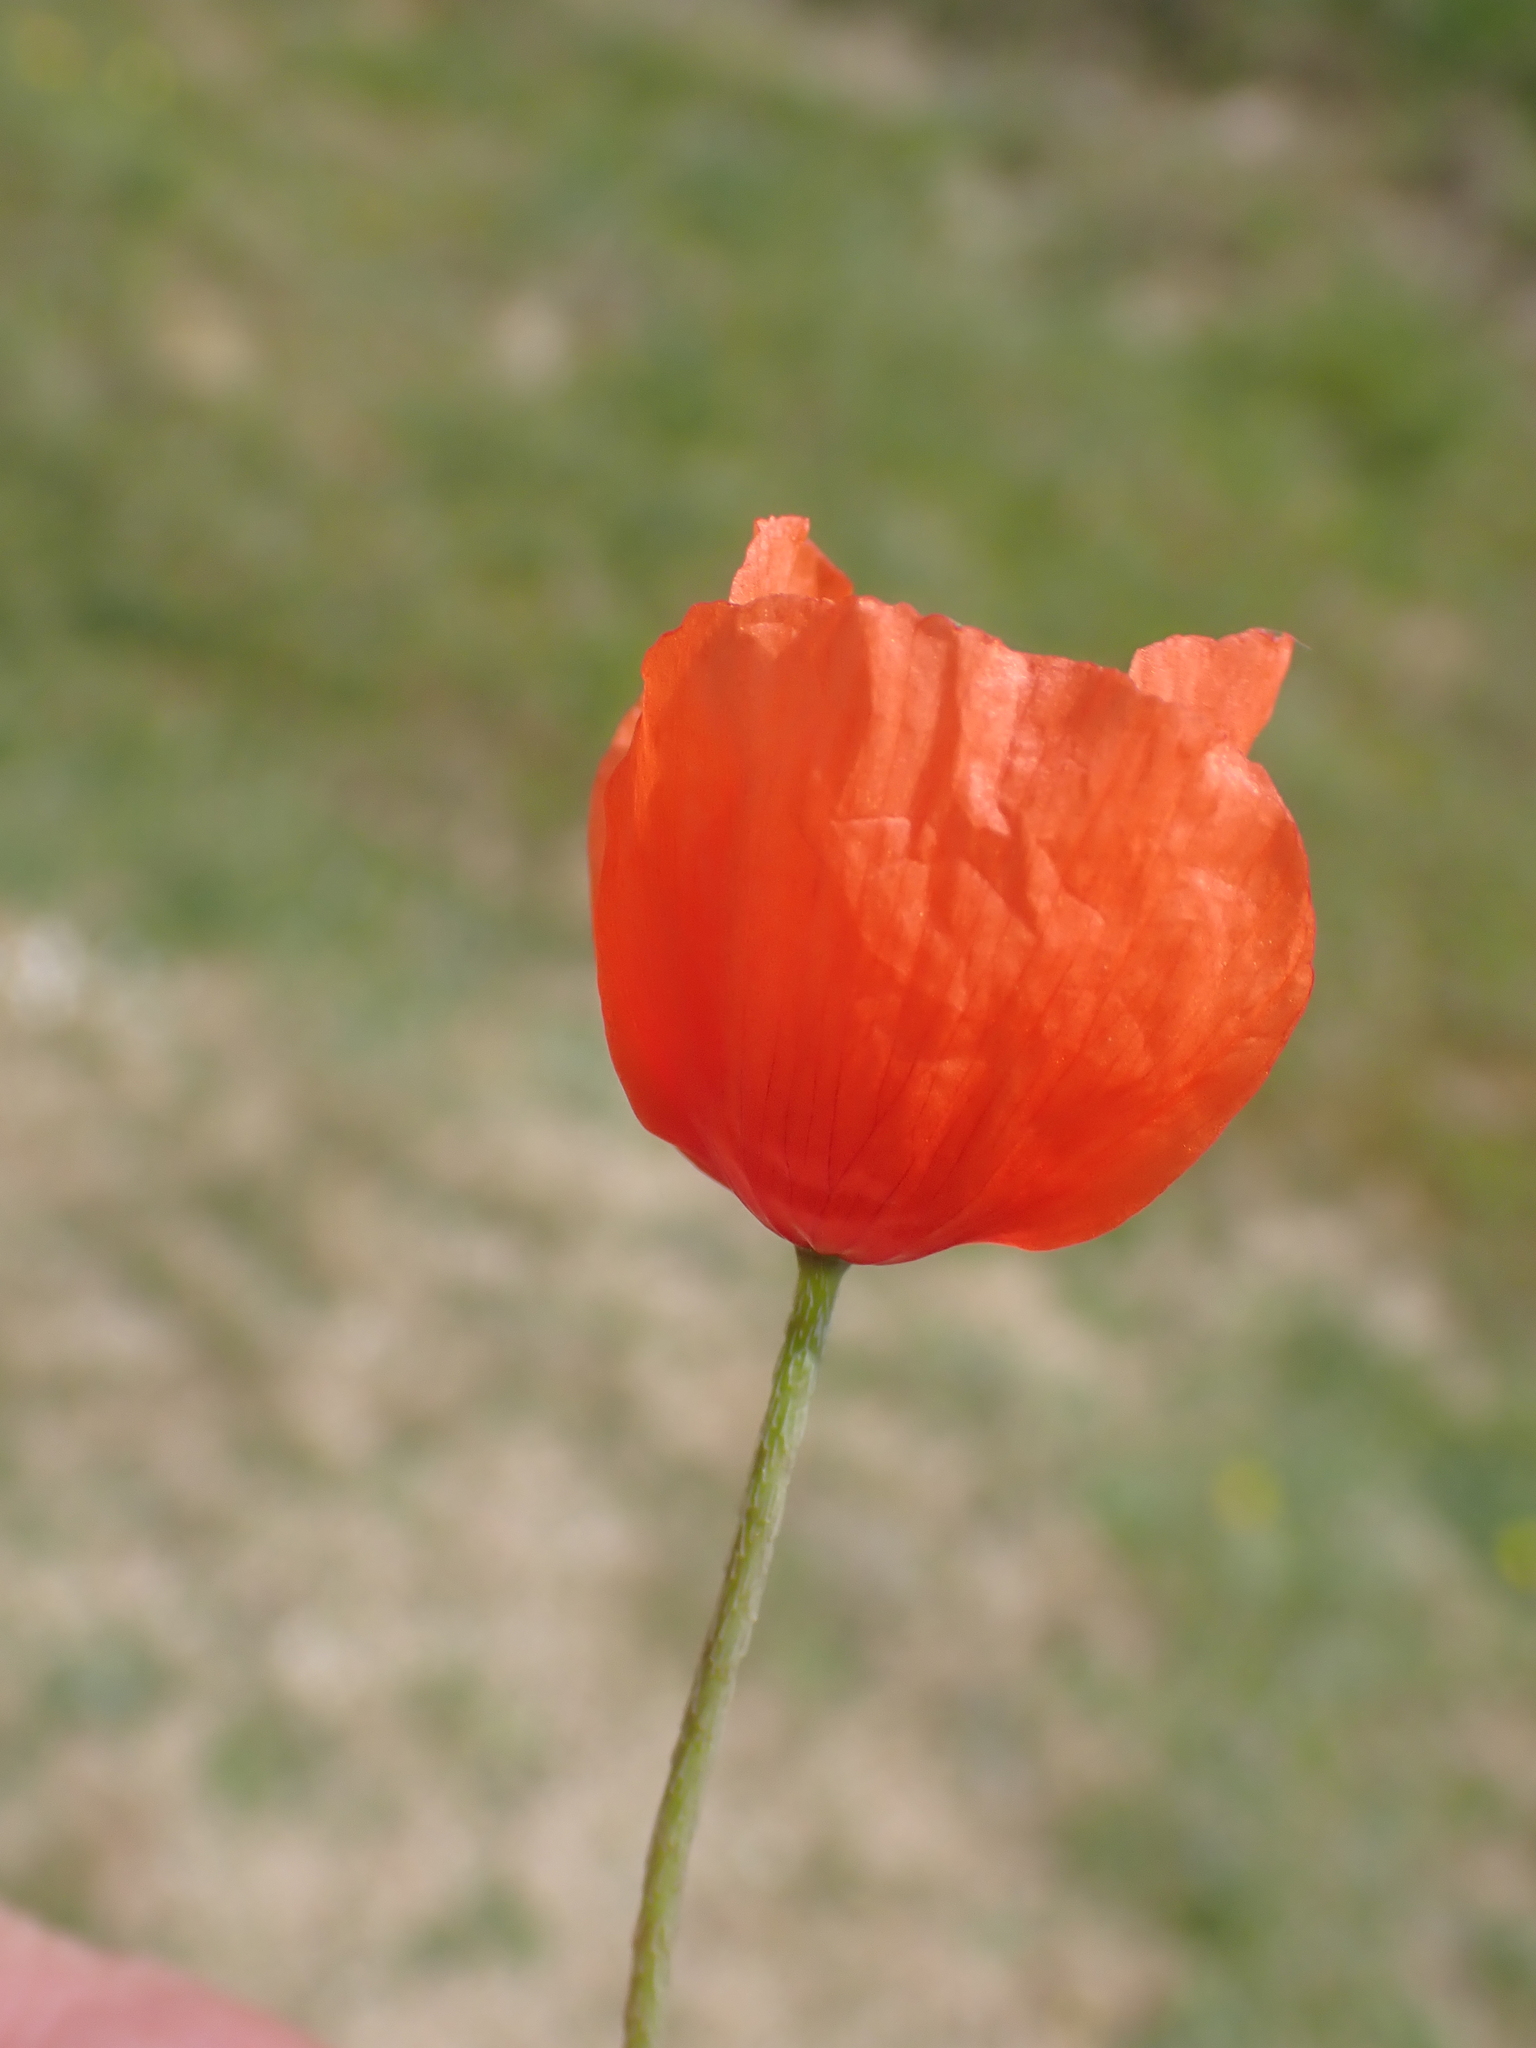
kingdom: Plantae
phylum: Tracheophyta
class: Magnoliopsida
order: Ranunculales
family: Papaveraceae
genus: Papaver
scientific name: Papaver dubium
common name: Long-headed poppy
